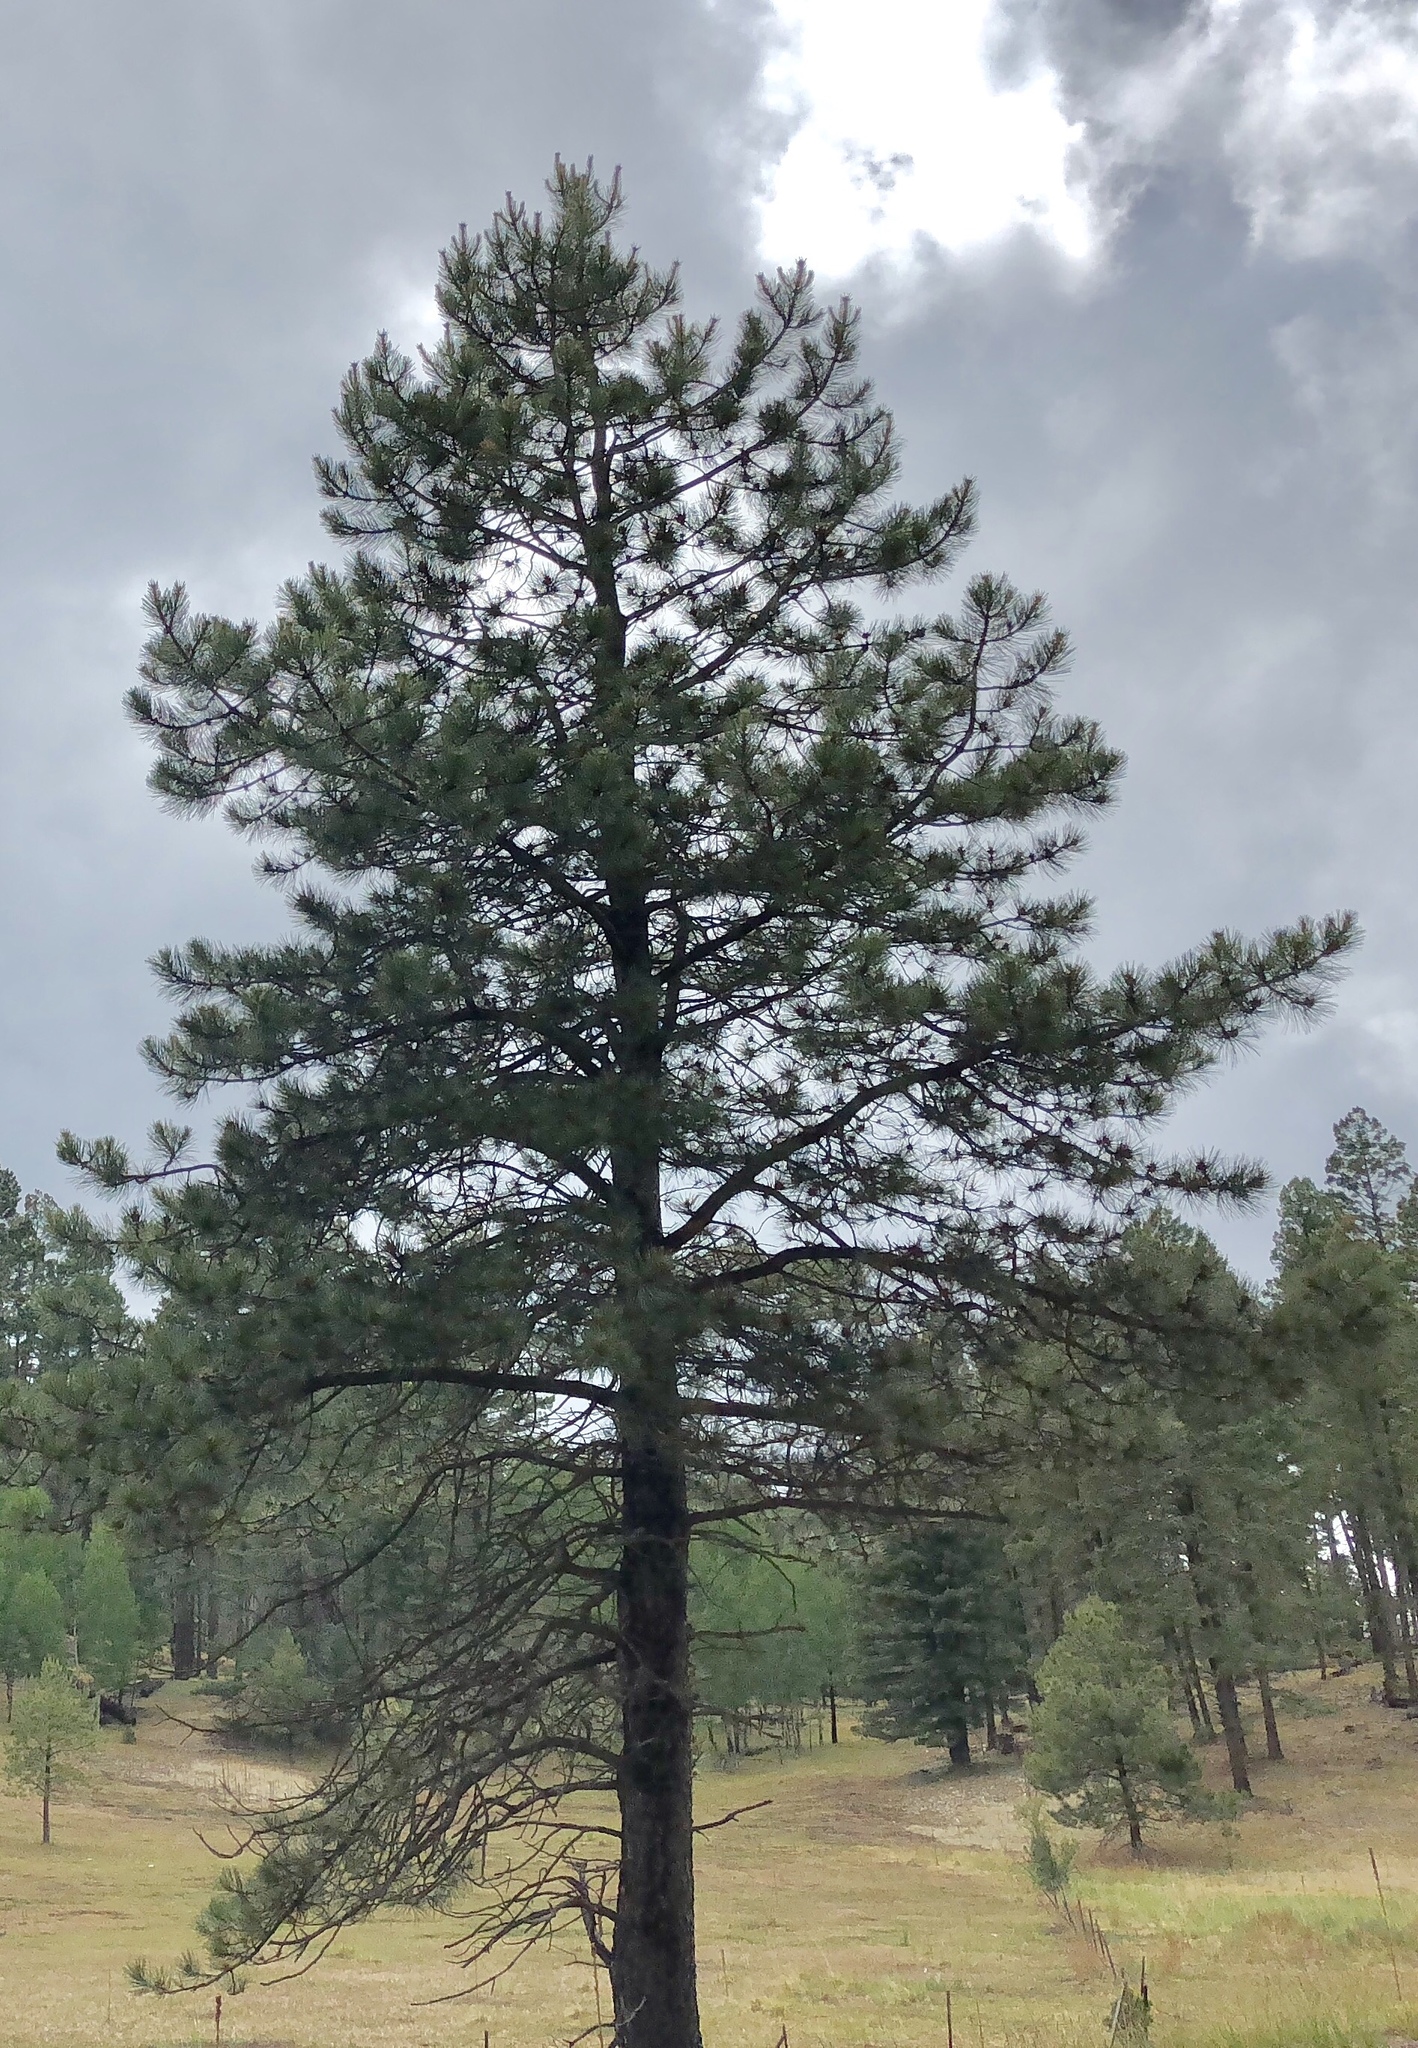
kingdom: Plantae
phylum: Tracheophyta
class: Pinopsida
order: Pinales
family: Pinaceae
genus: Pinus
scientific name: Pinus ponderosa
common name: Western yellow-pine
